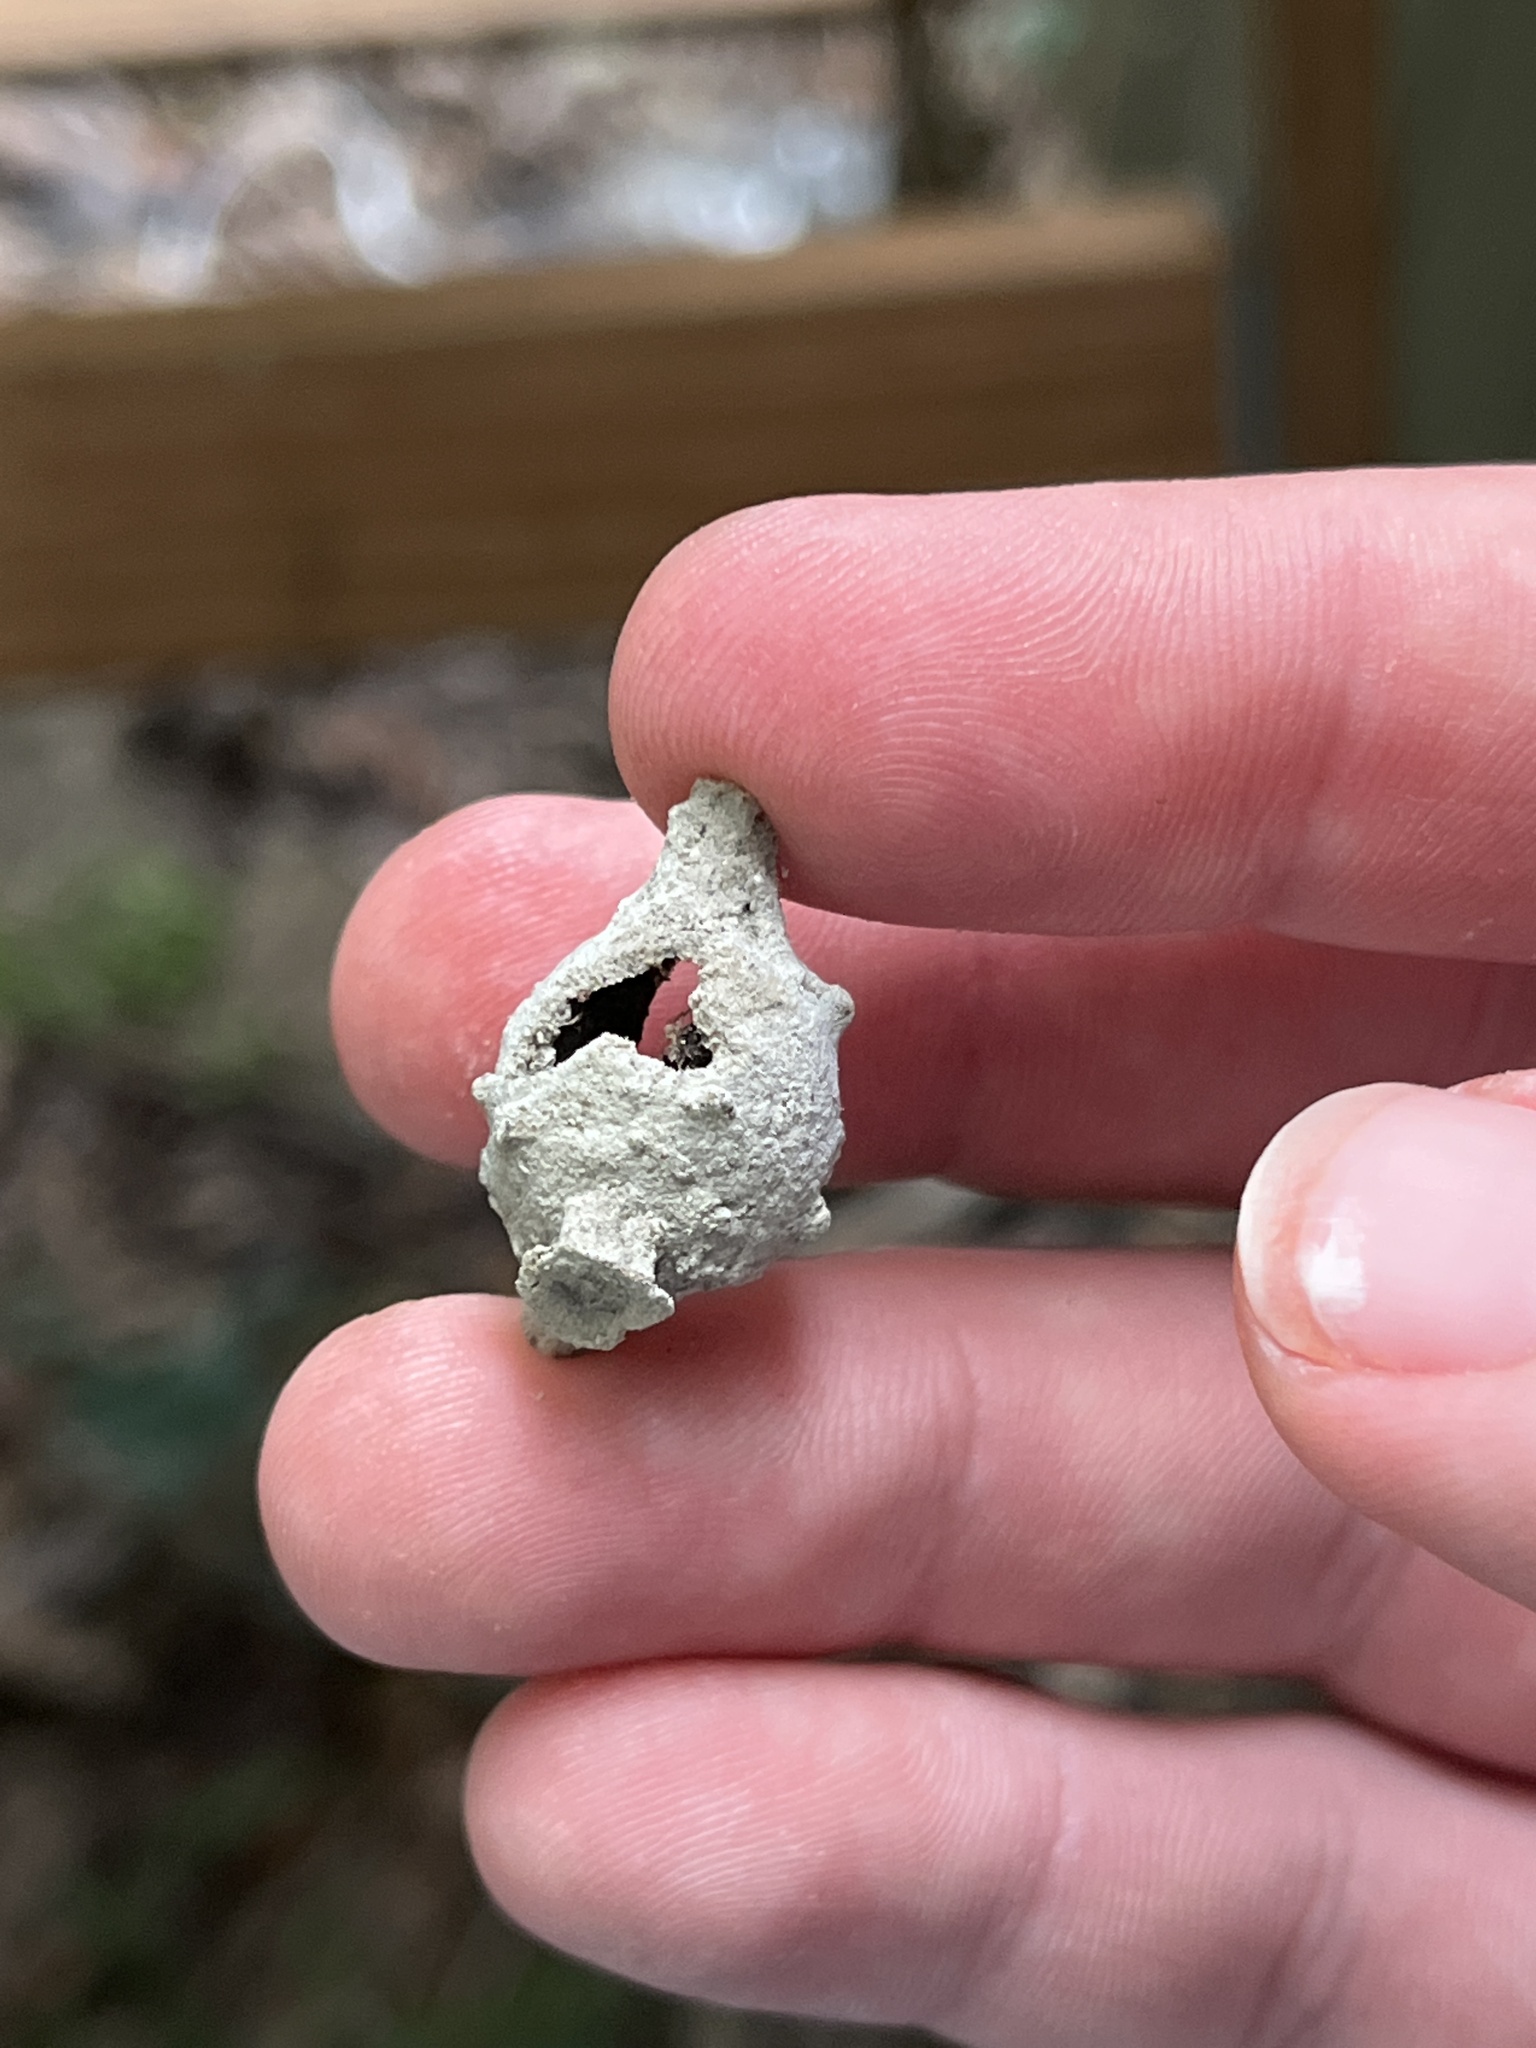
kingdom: Animalia
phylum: Arthropoda
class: Insecta
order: Hymenoptera
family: Vespidae
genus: Eumenes
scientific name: Eumenes
